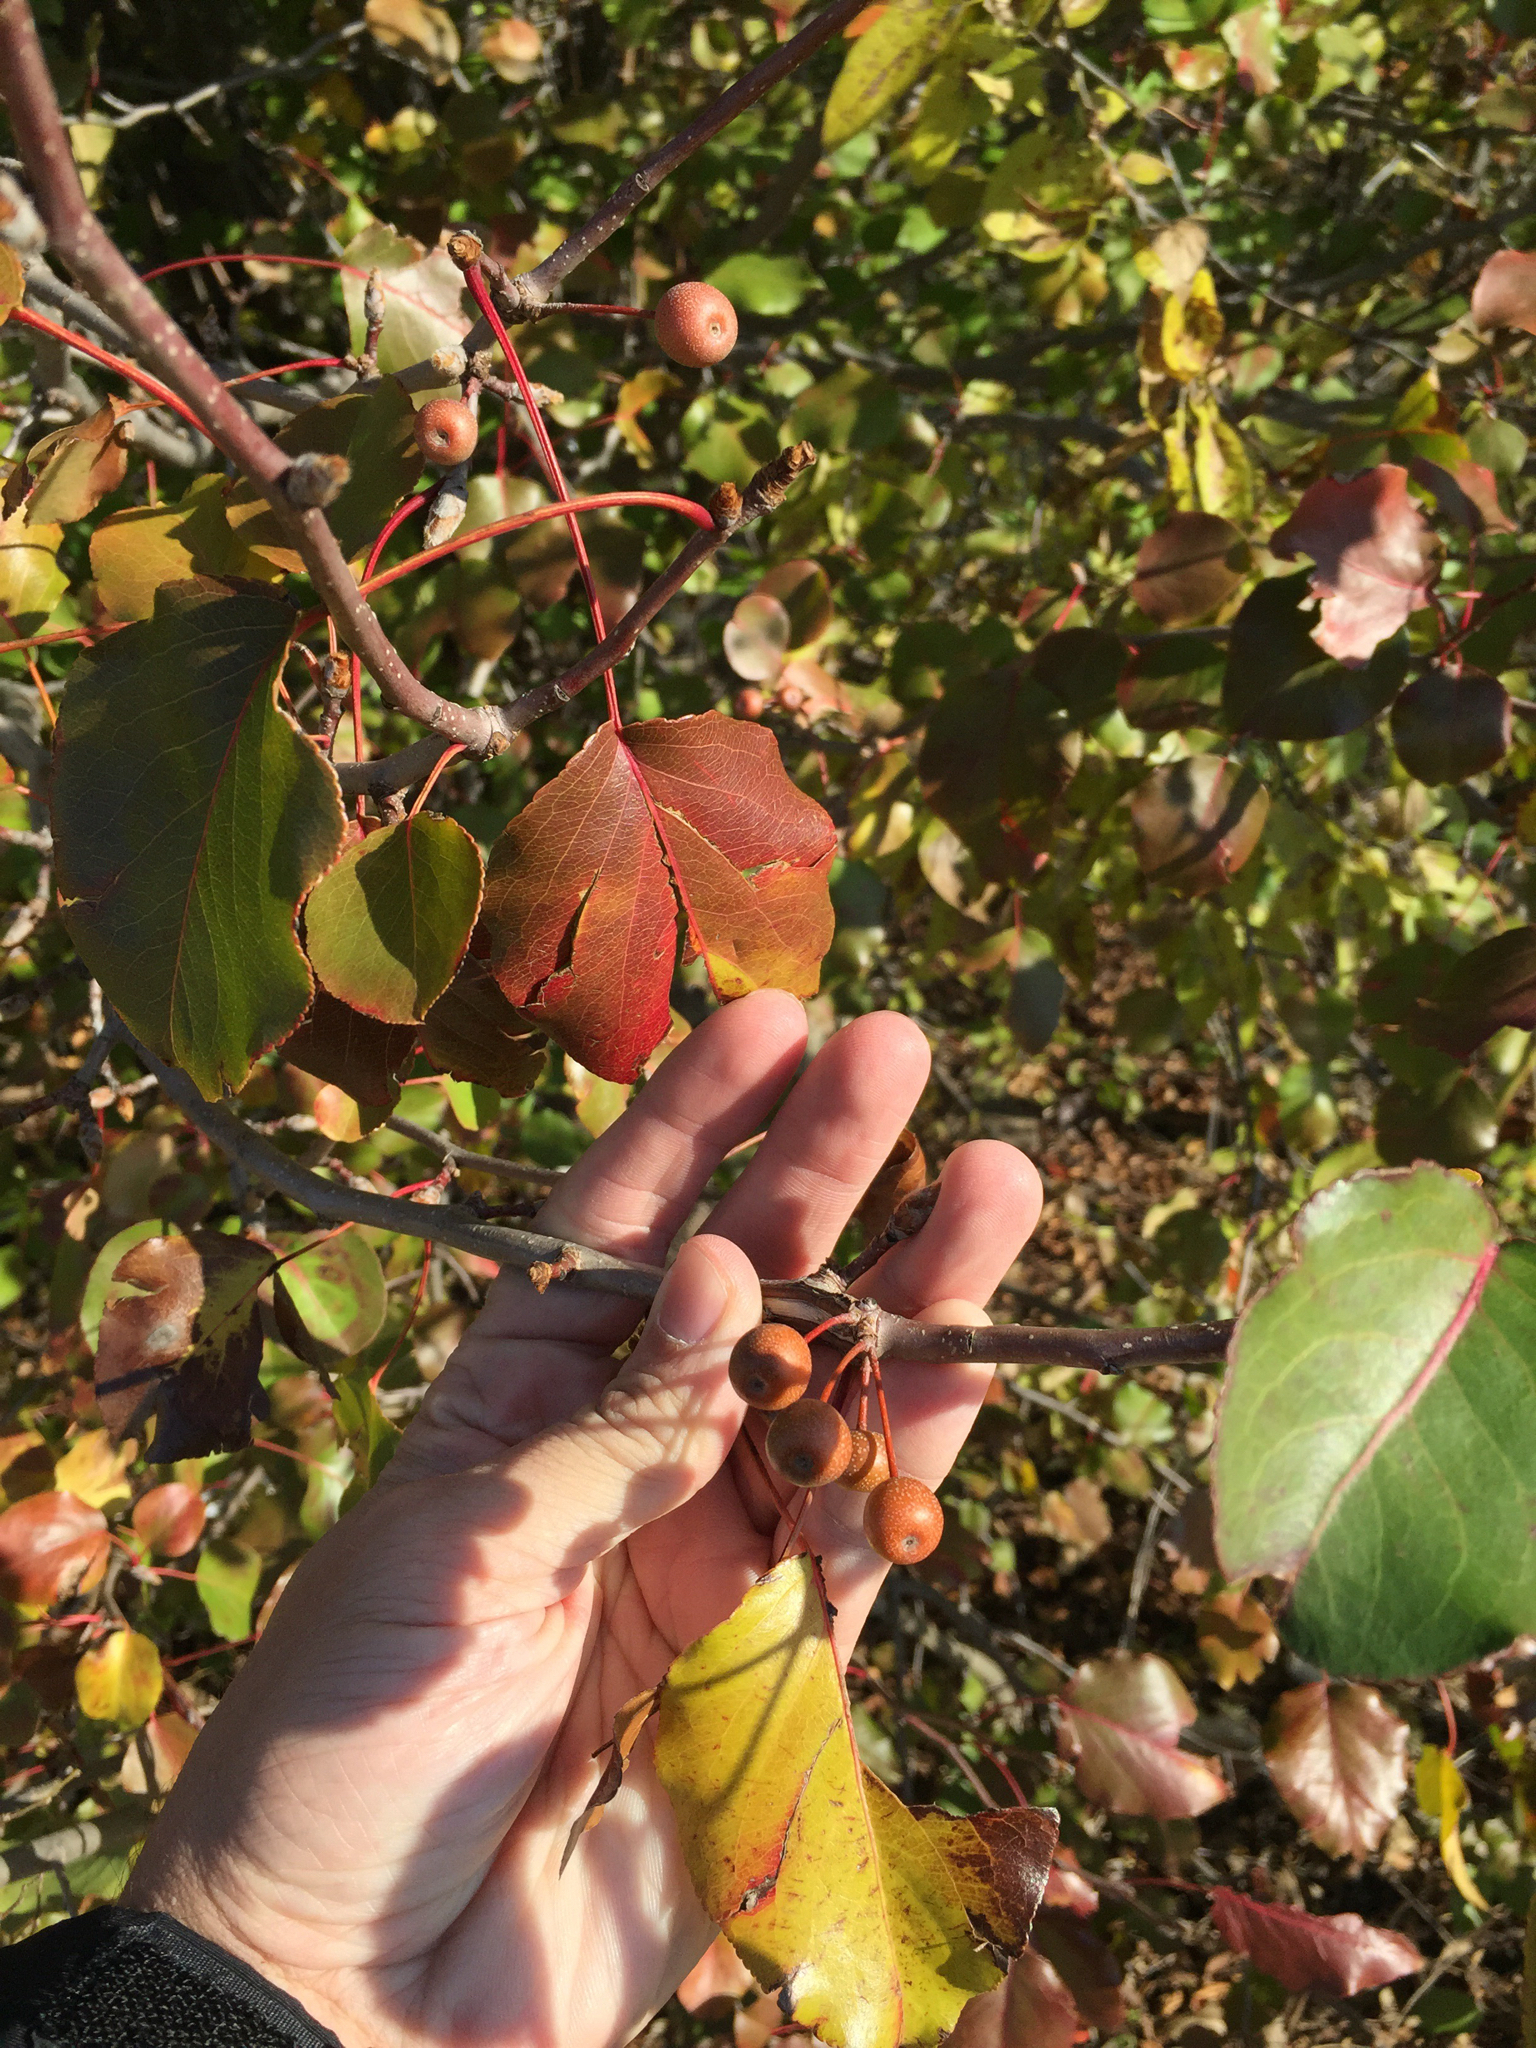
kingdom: Plantae
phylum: Tracheophyta
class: Magnoliopsida
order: Rosales
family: Rosaceae
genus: Pyrus
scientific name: Pyrus calleryana
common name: Callery pear
